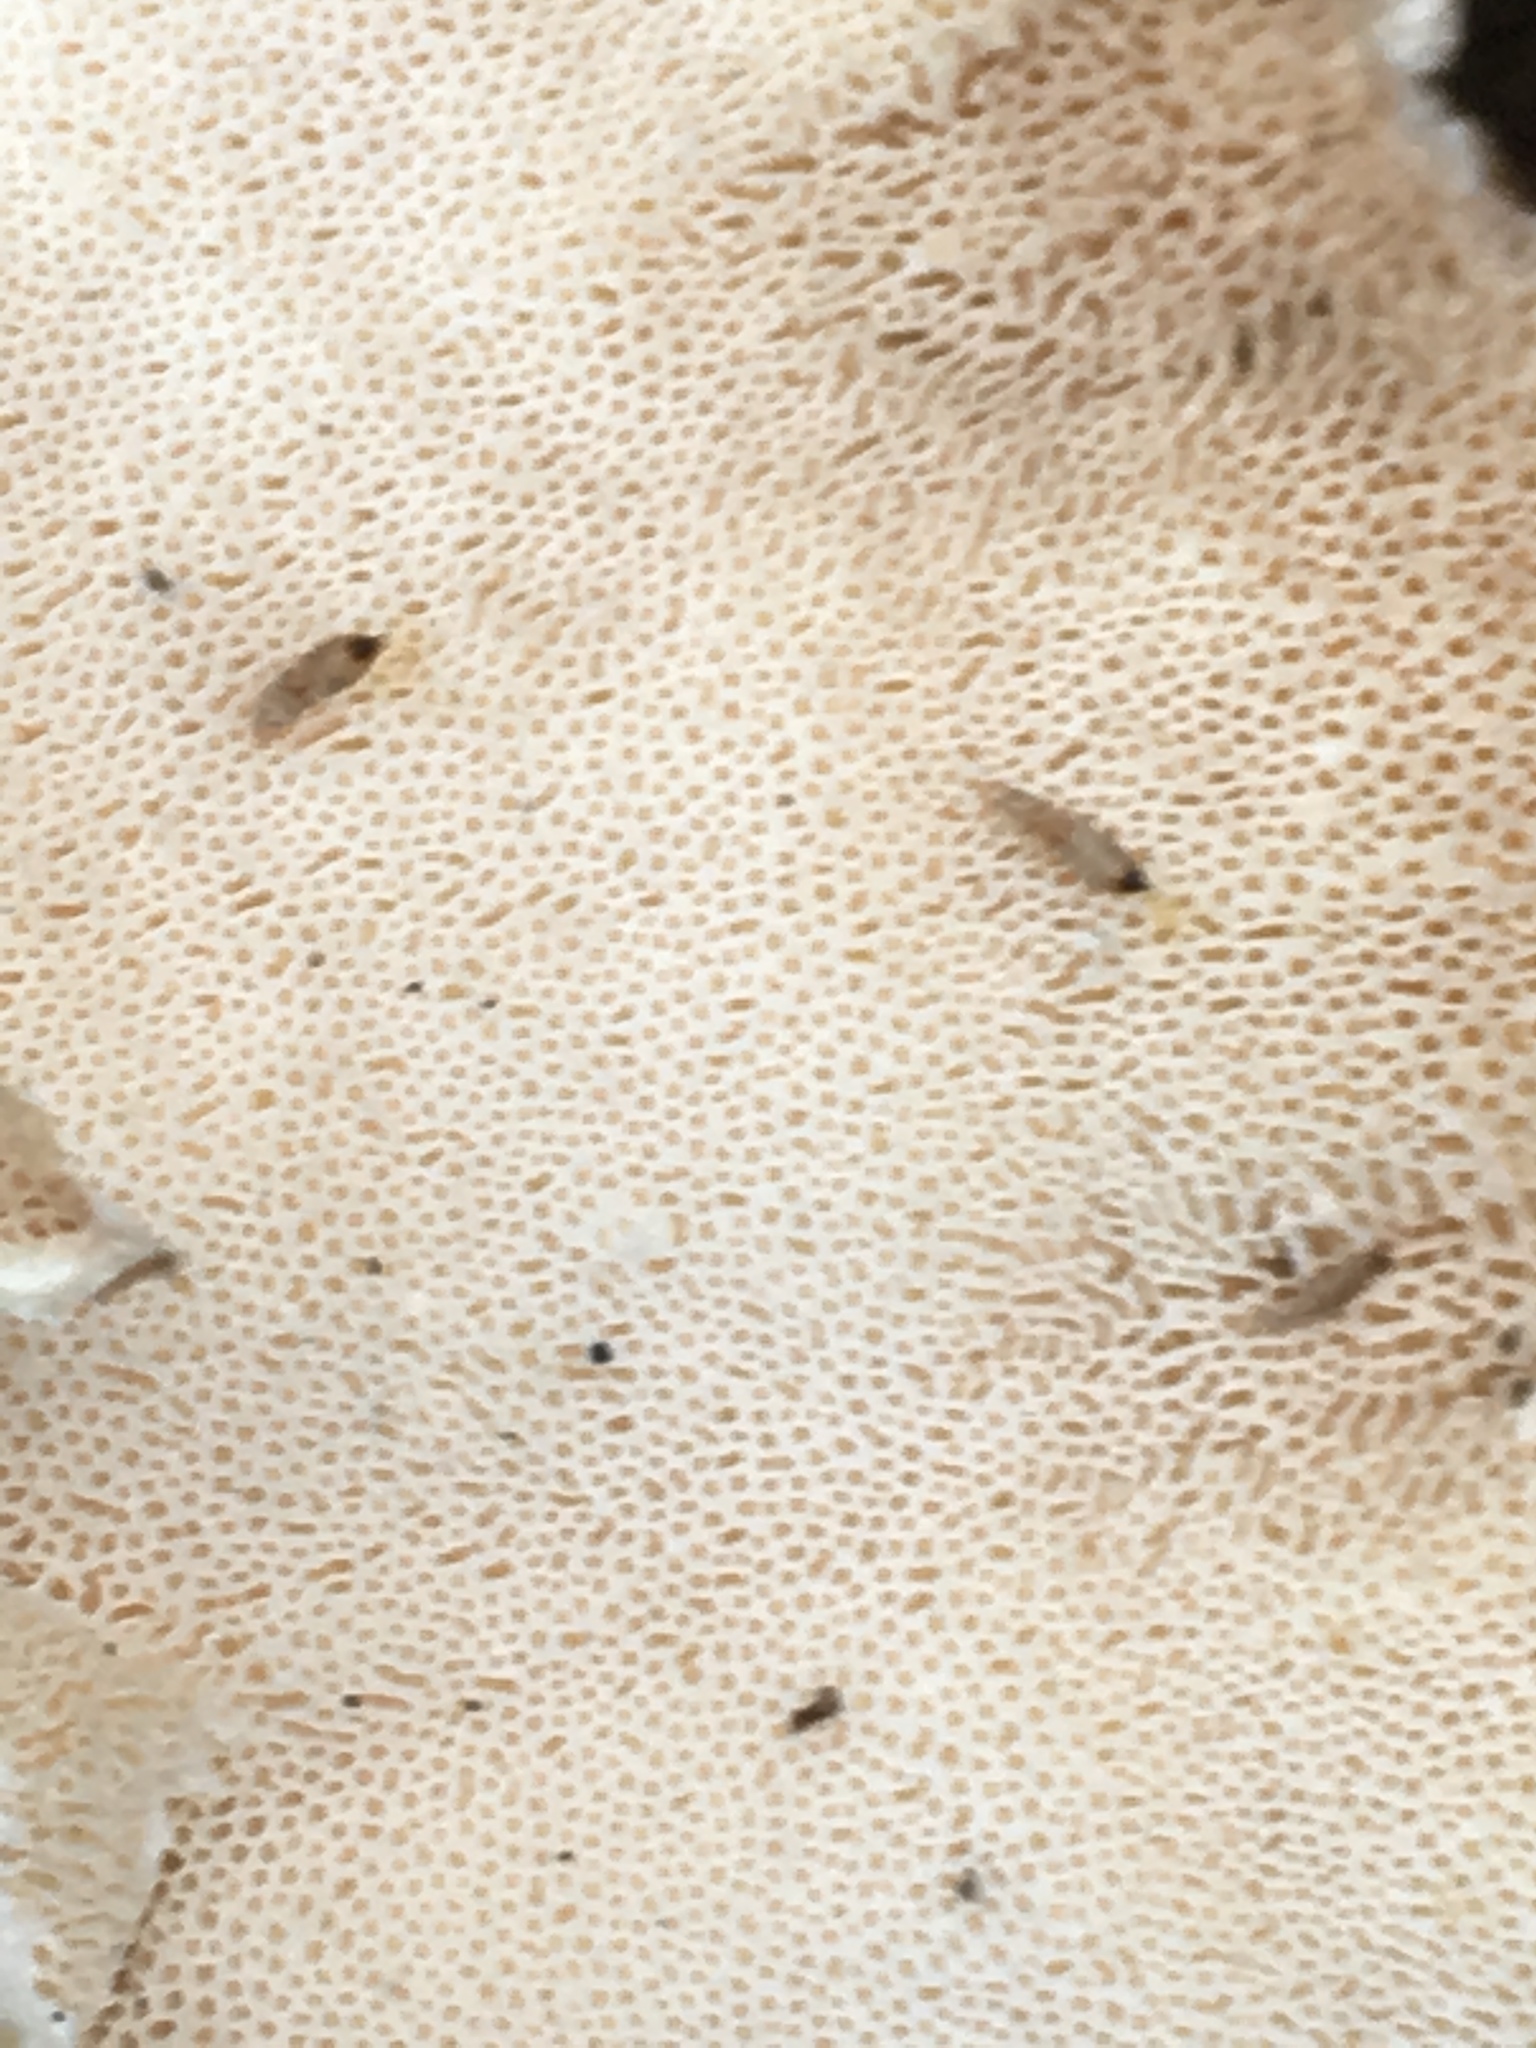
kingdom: Fungi
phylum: Basidiomycota
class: Agaricomycetes
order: Polyporales
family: Polyporaceae
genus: Trametes
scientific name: Trametes versicolor
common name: Turkeytail
